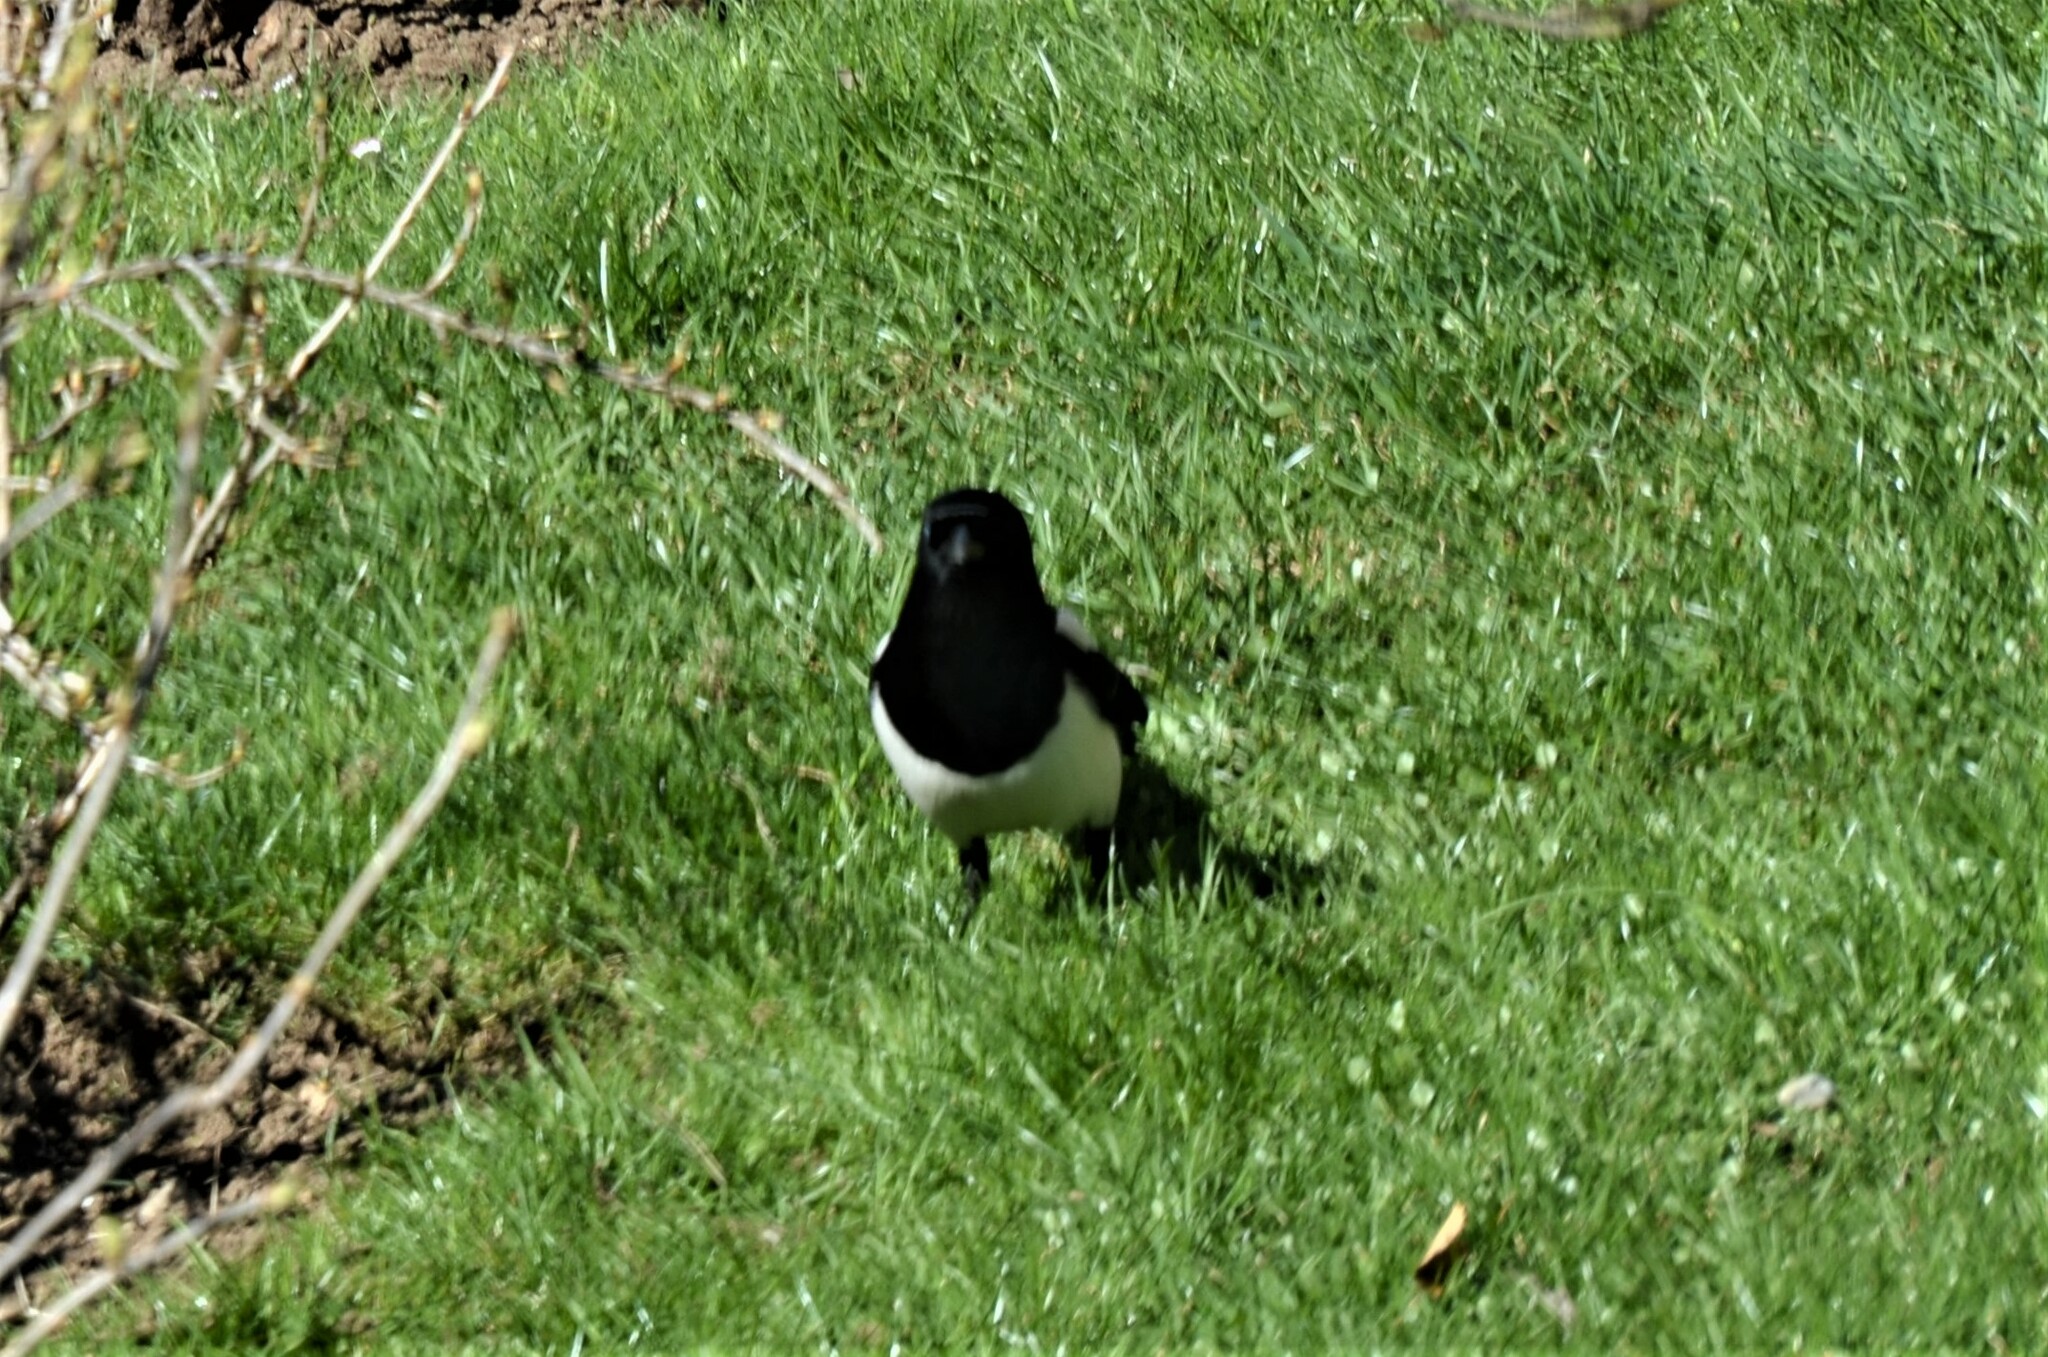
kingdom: Animalia
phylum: Chordata
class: Aves
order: Passeriformes
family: Corvidae
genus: Pica
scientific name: Pica pica
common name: Eurasian magpie
